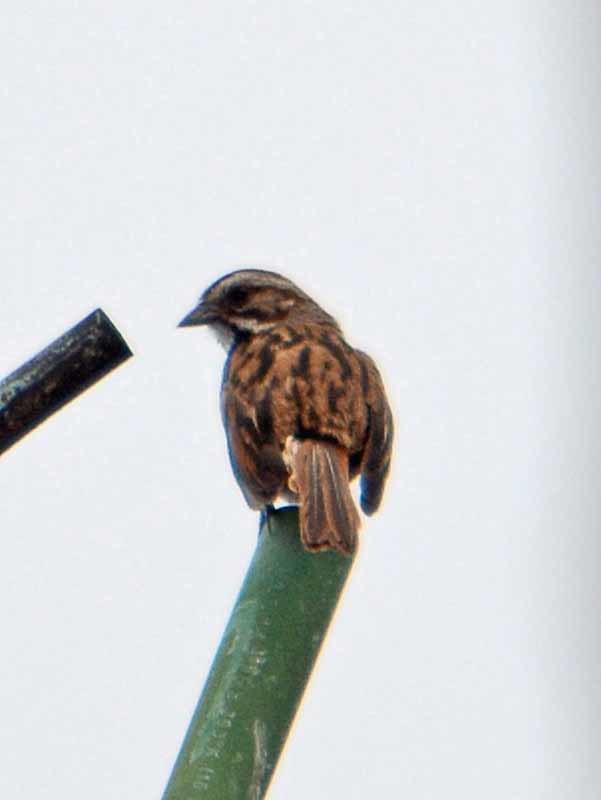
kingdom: Animalia
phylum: Chordata
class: Aves
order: Passeriformes
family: Passerellidae
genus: Melospiza
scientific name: Melospiza melodia
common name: Song sparrow
